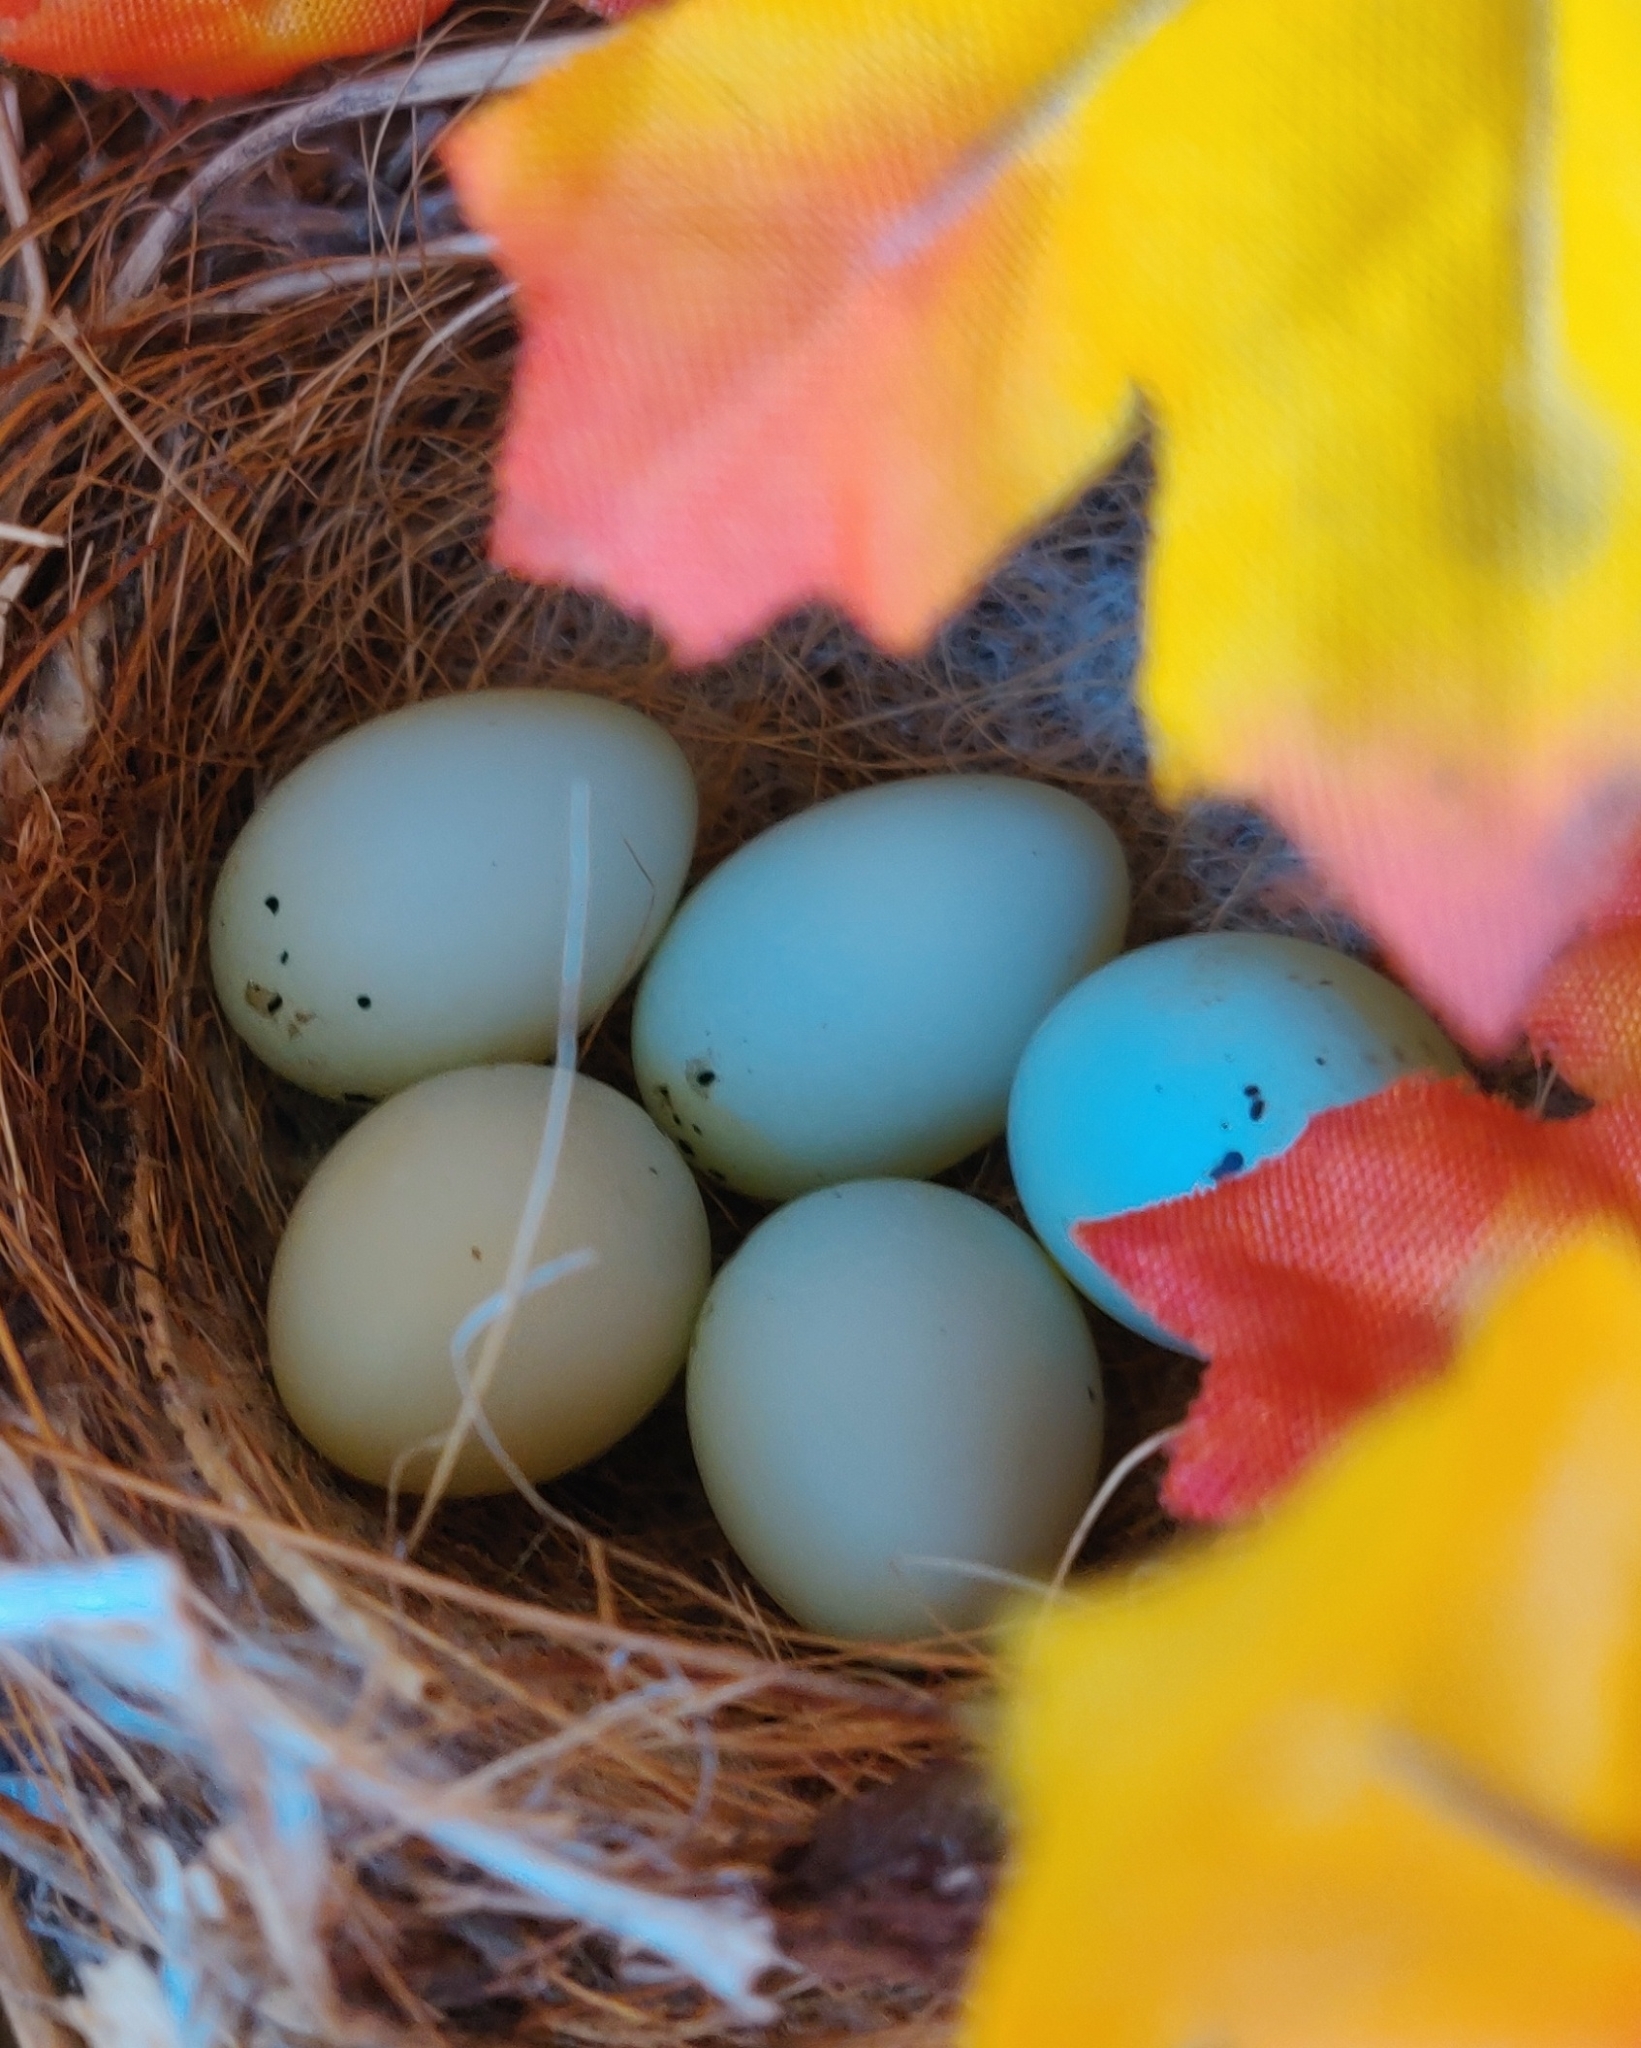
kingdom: Animalia
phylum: Chordata
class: Aves
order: Passeriformes
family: Fringillidae
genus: Haemorhous
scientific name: Haemorhous mexicanus
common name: House finch
